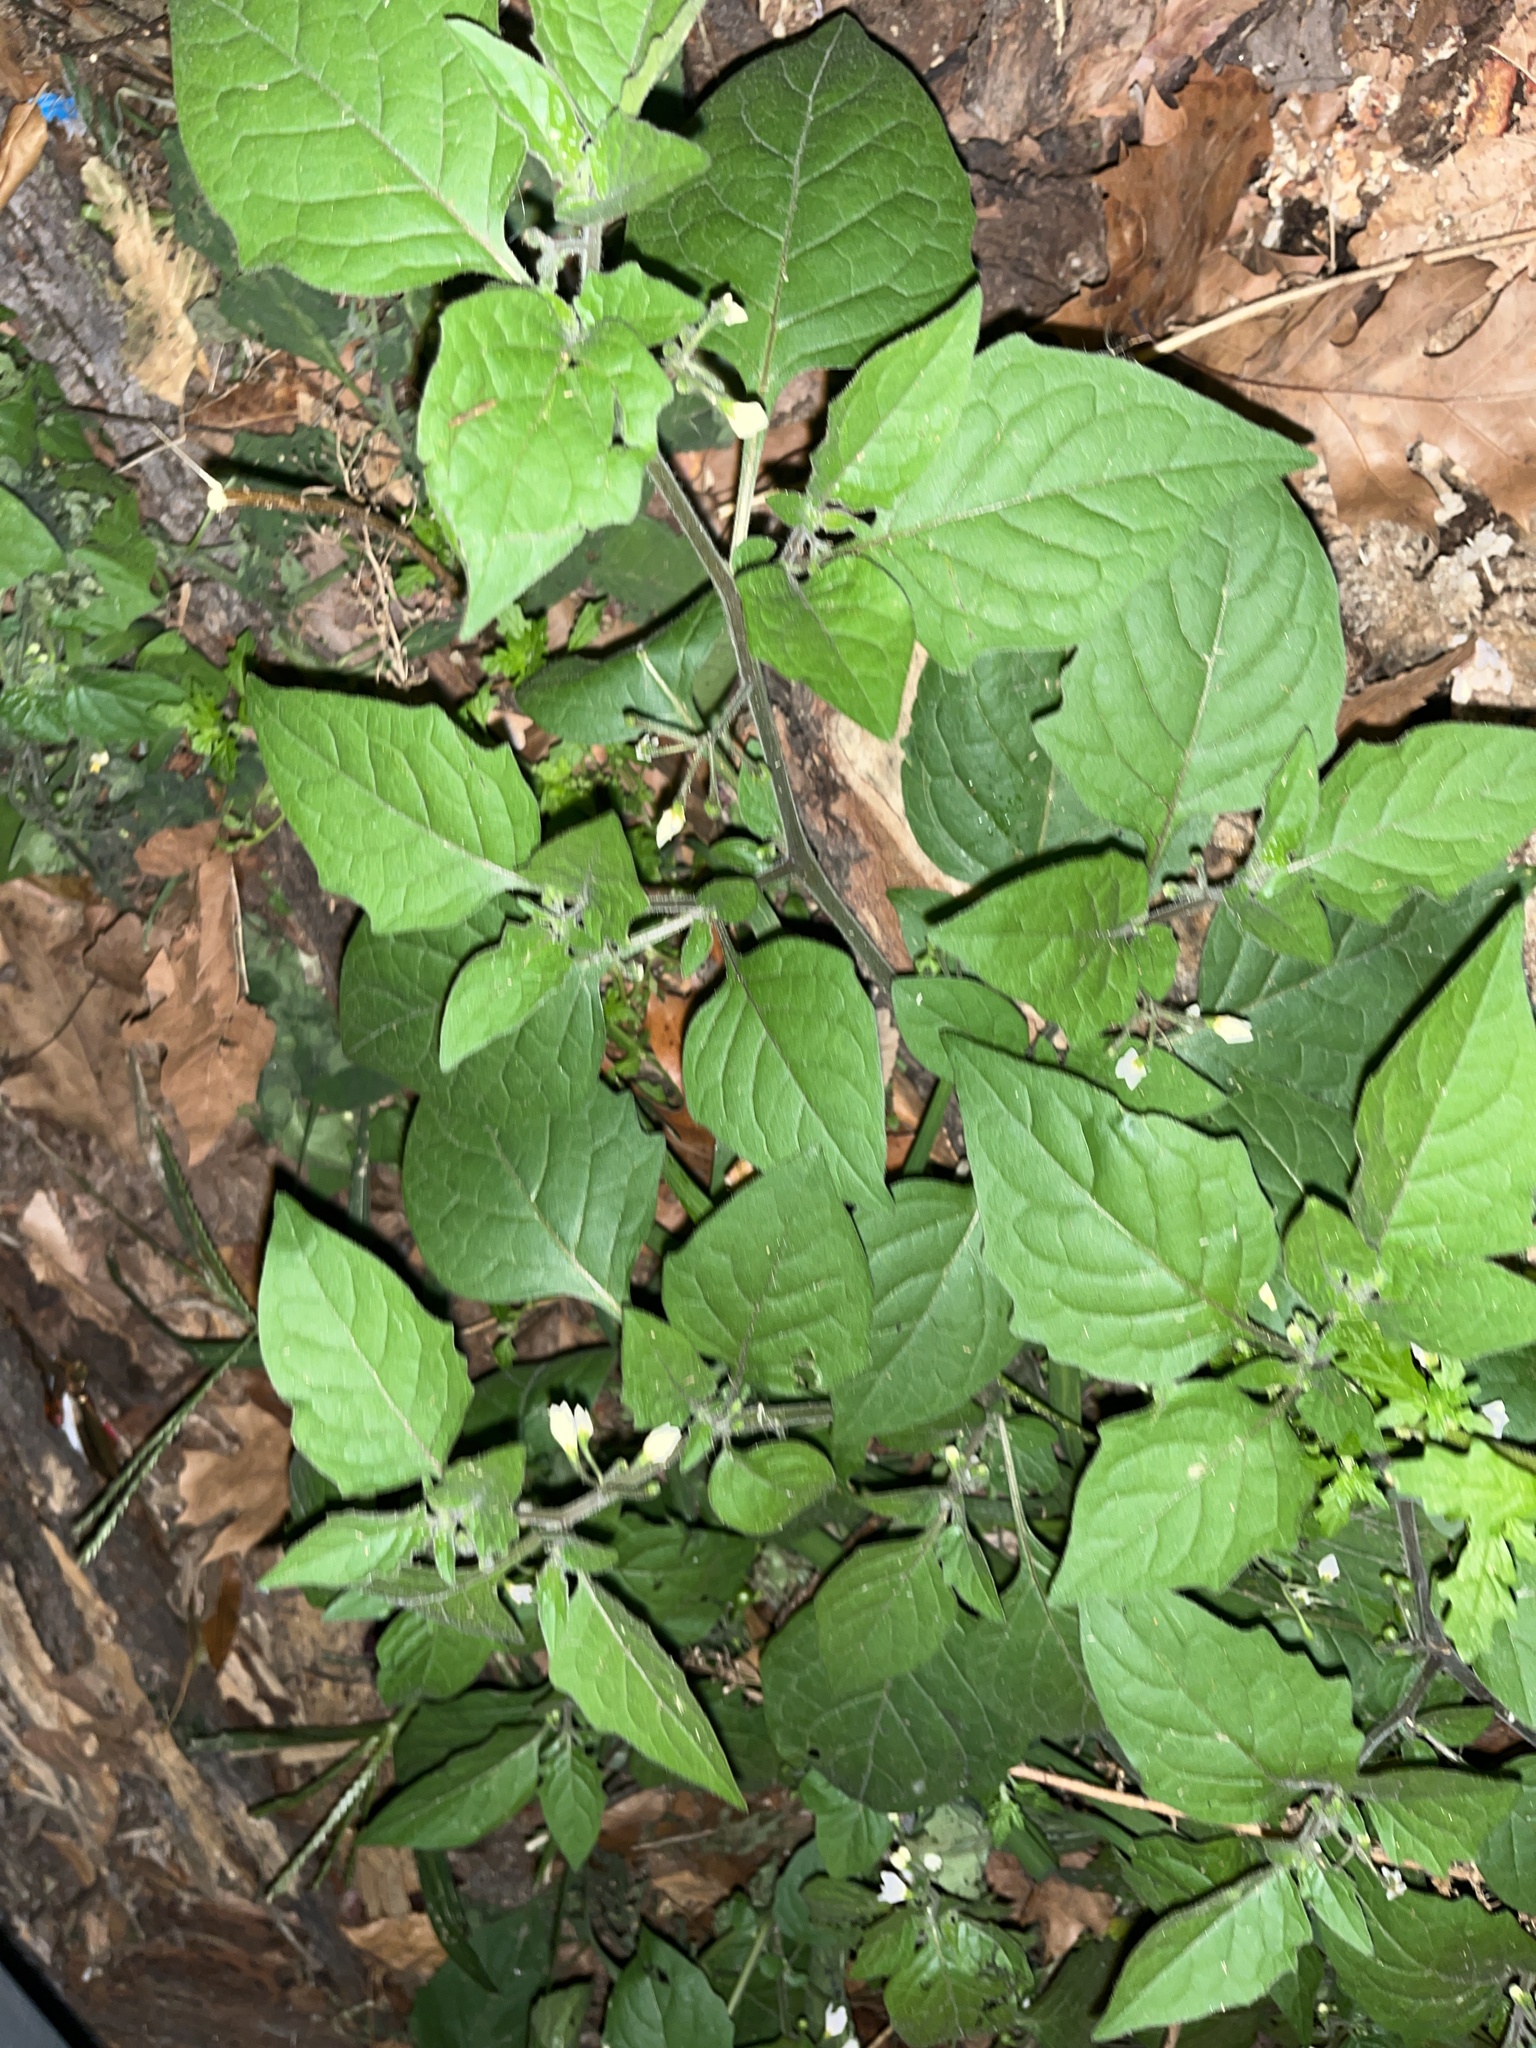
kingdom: Plantae
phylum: Tracheophyta
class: Magnoliopsida
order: Solanales
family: Solanaceae
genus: Solanum
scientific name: Solanum nigrum
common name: Black nightshade
